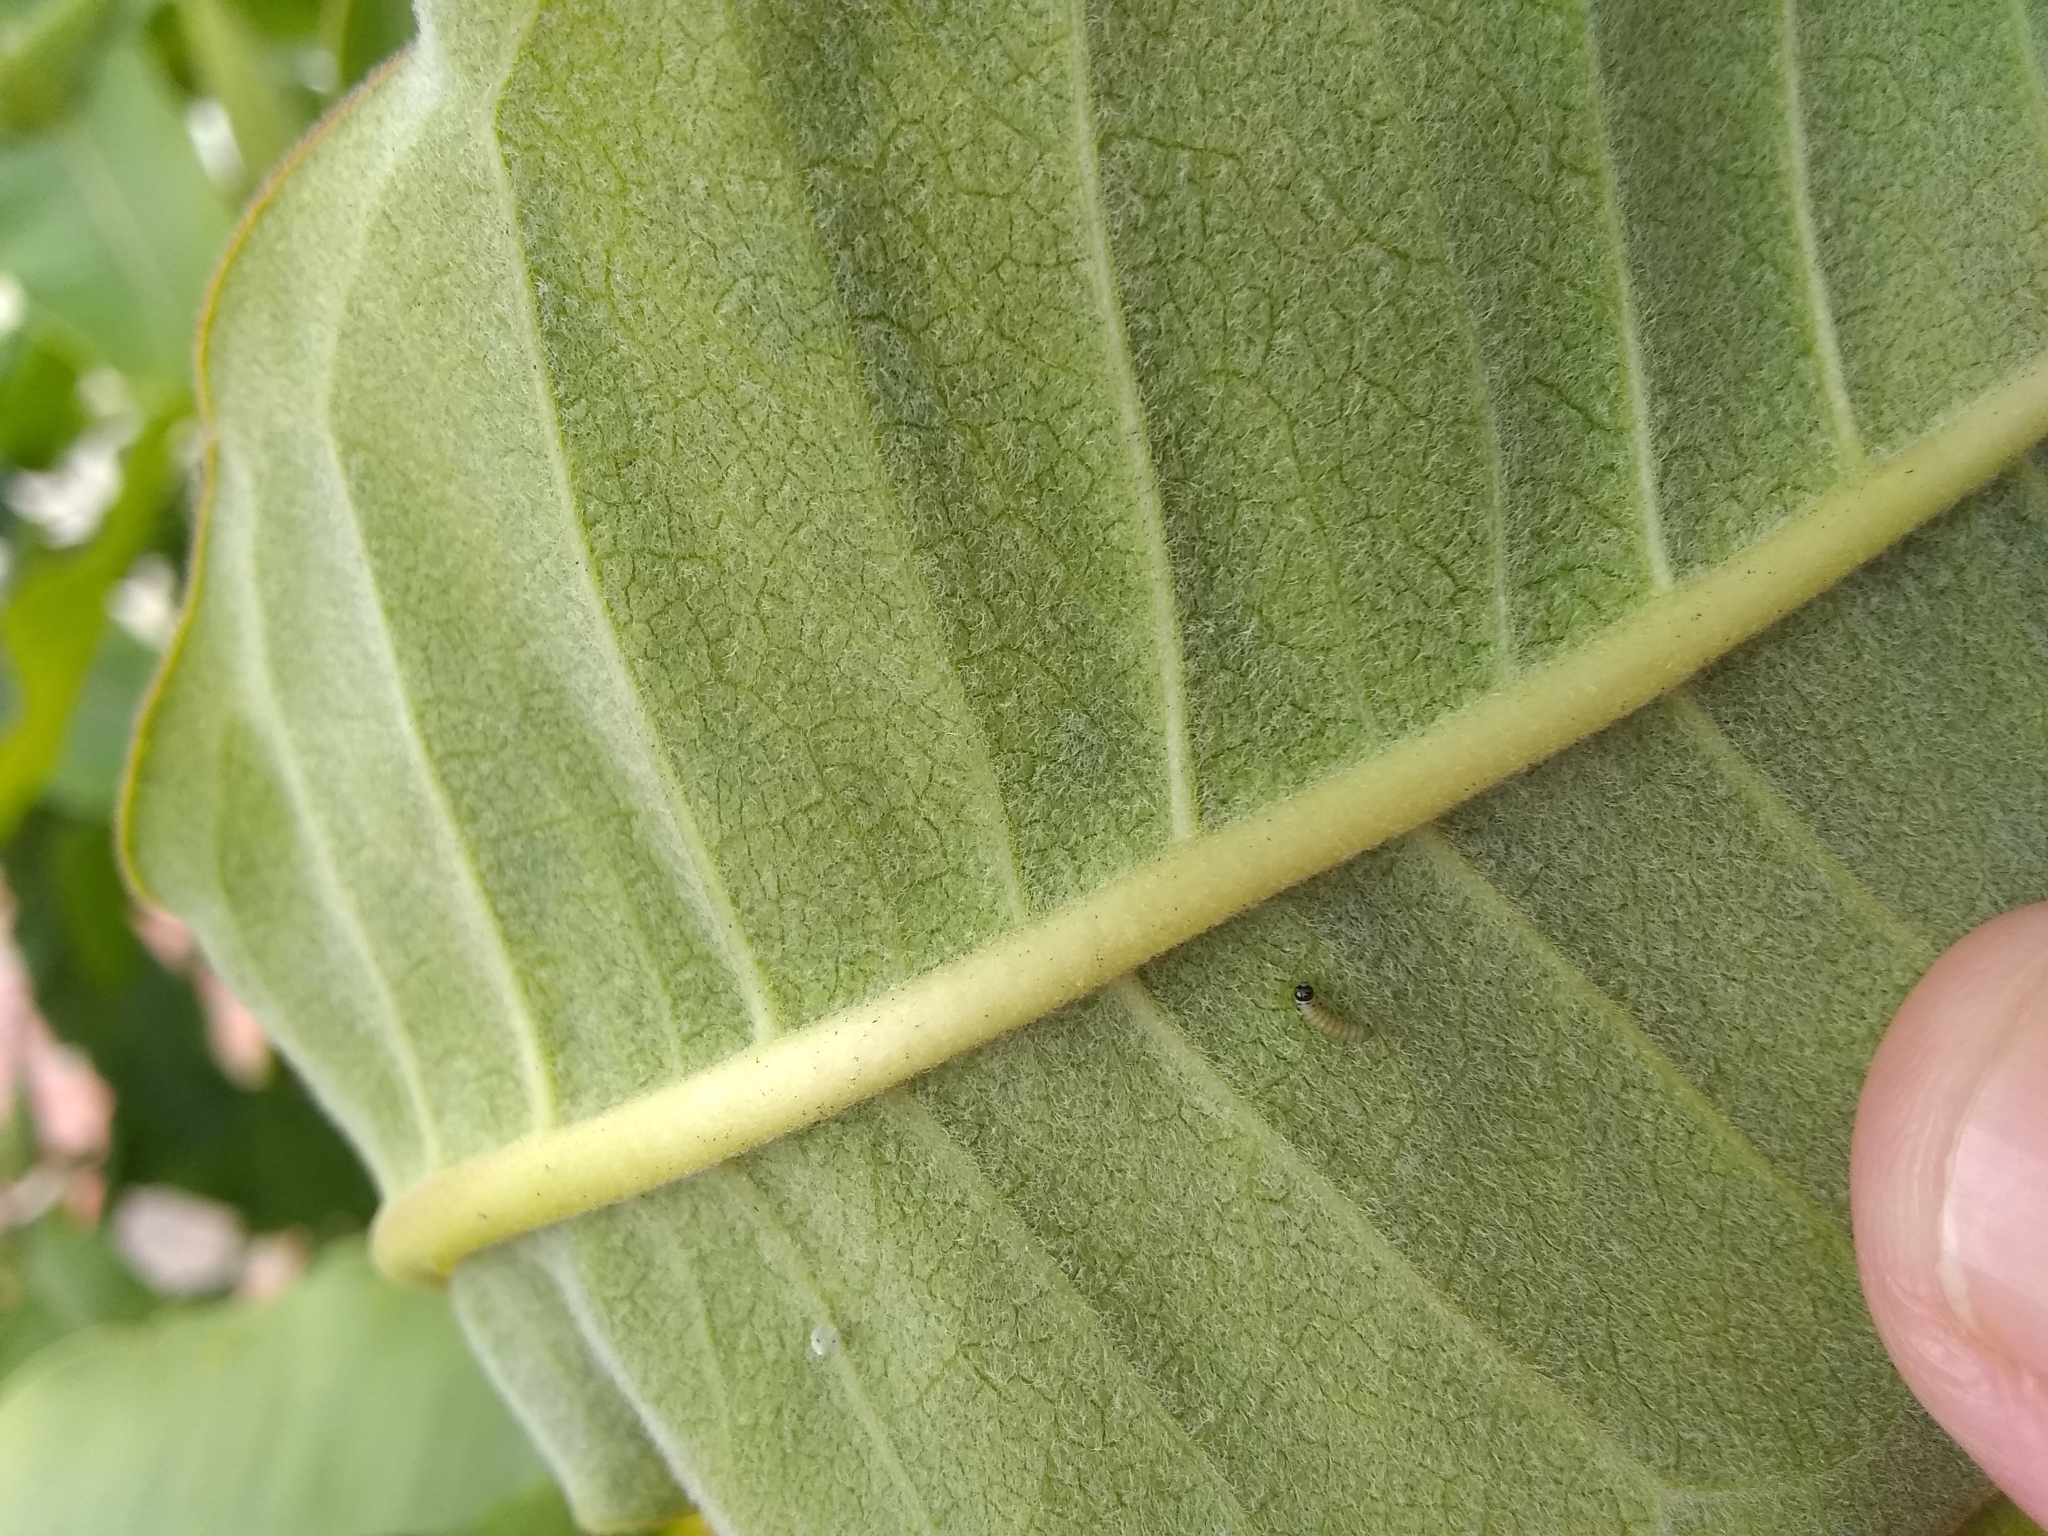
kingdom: Animalia
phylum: Arthropoda
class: Insecta
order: Lepidoptera
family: Nymphalidae
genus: Danaus
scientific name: Danaus plexippus
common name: Monarch
